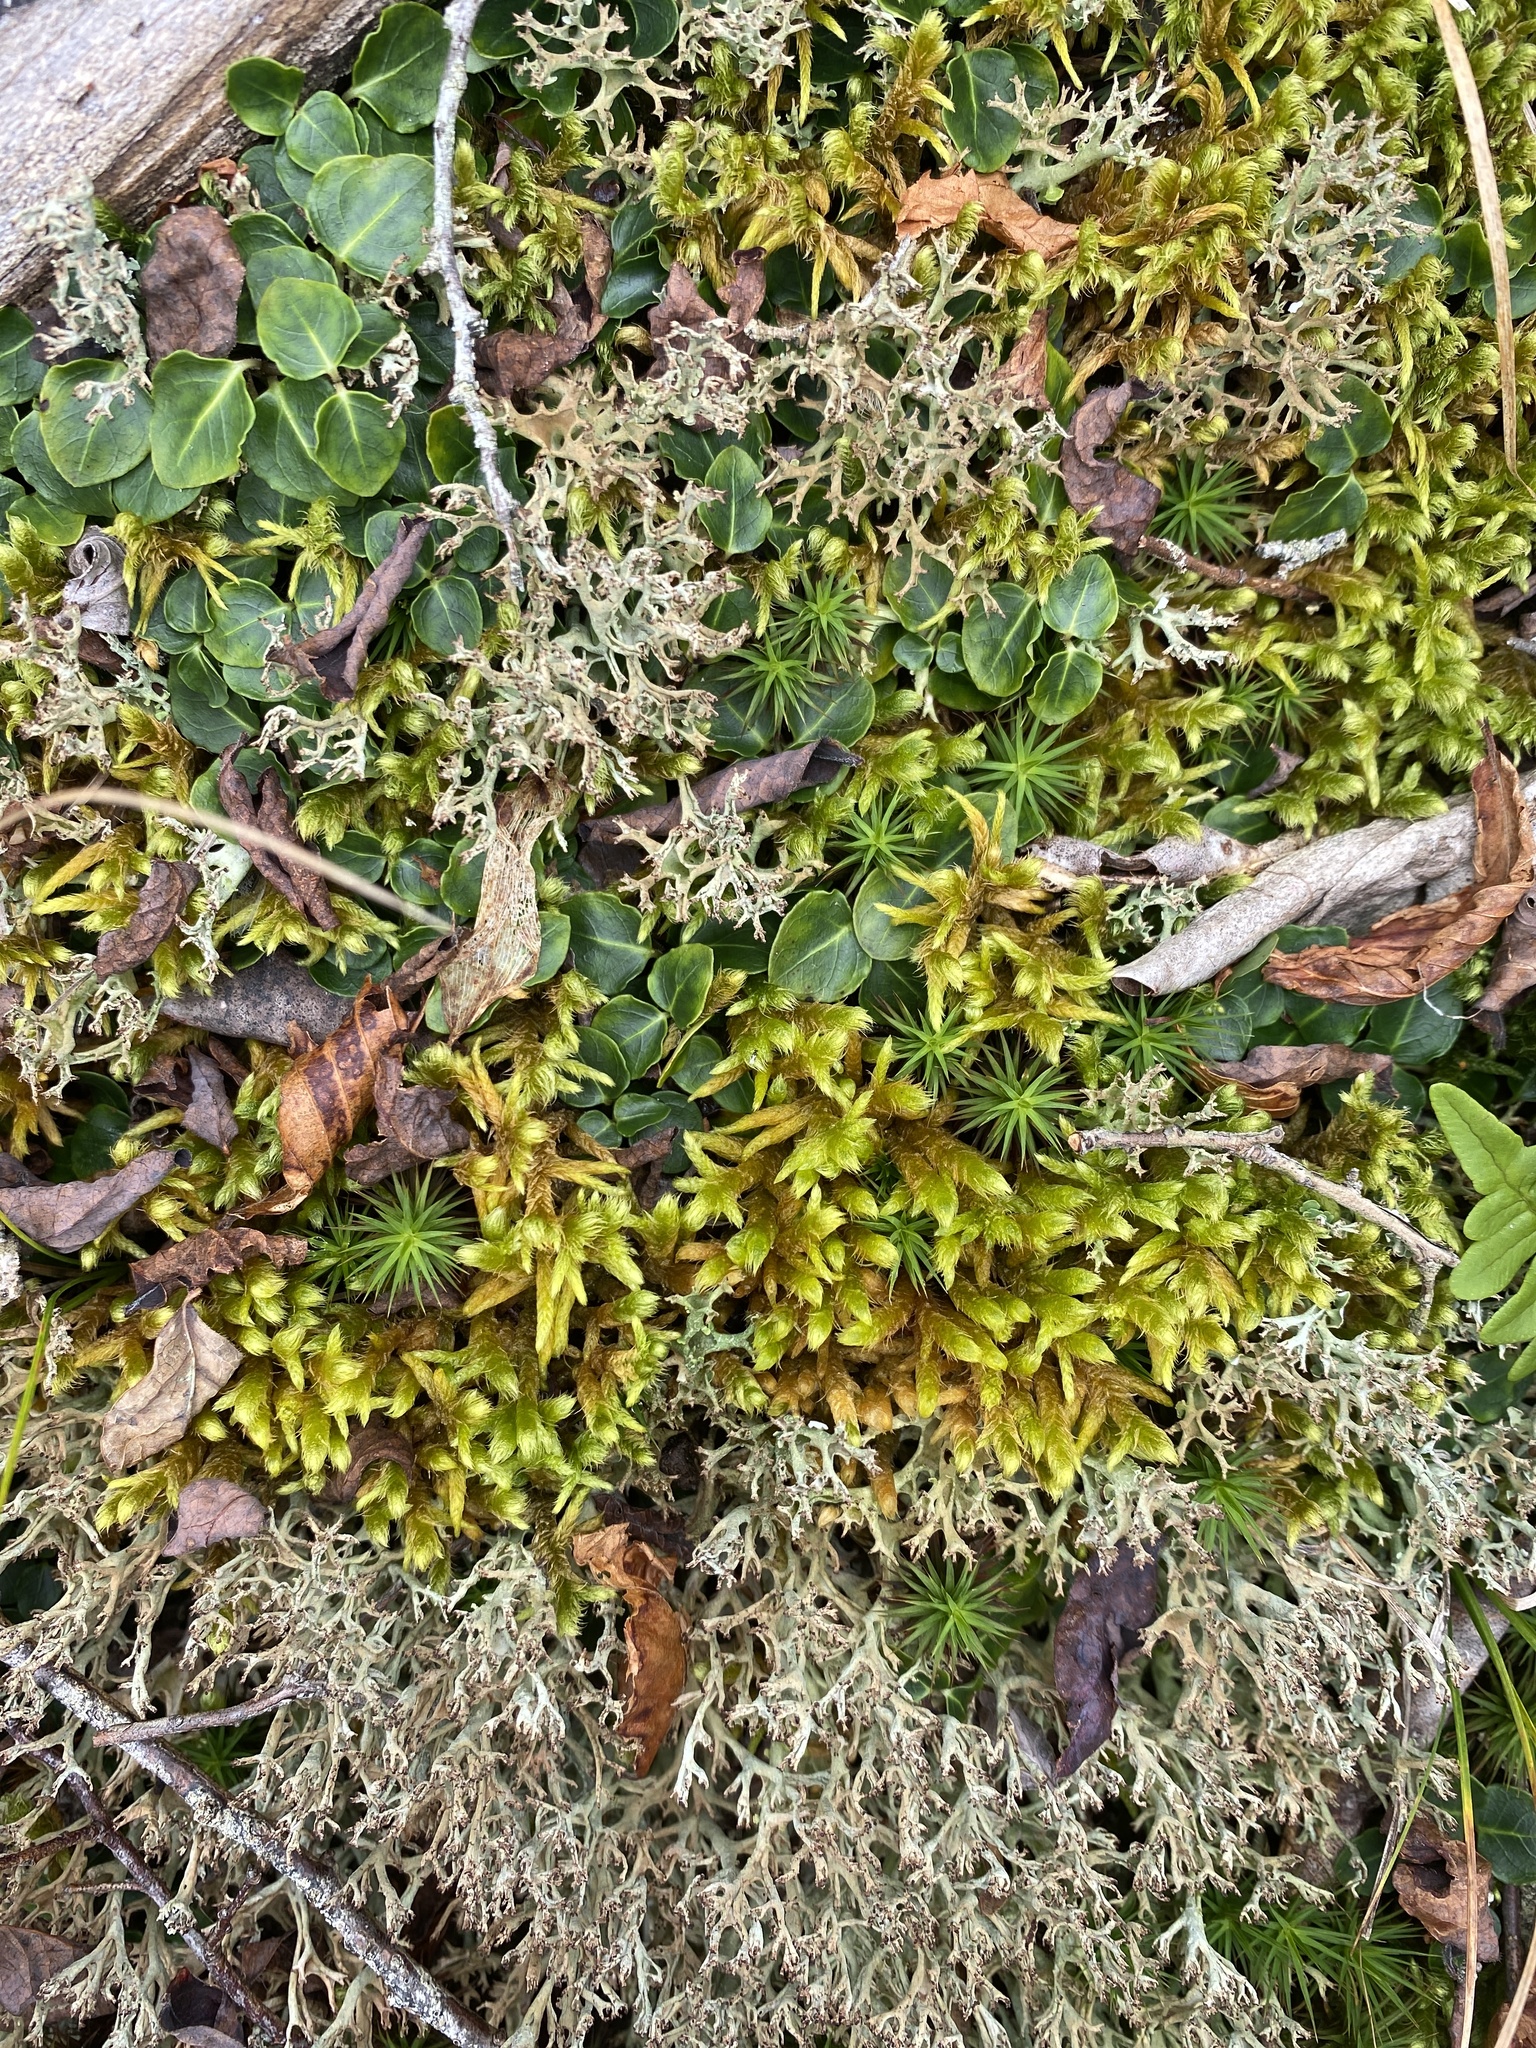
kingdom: Plantae
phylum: Bryophyta
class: Bryopsida
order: Hypnales
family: Rhytidiaceae
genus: Rhytidium
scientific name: Rhytidium rugosum
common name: Wrinkle-leaved moss
